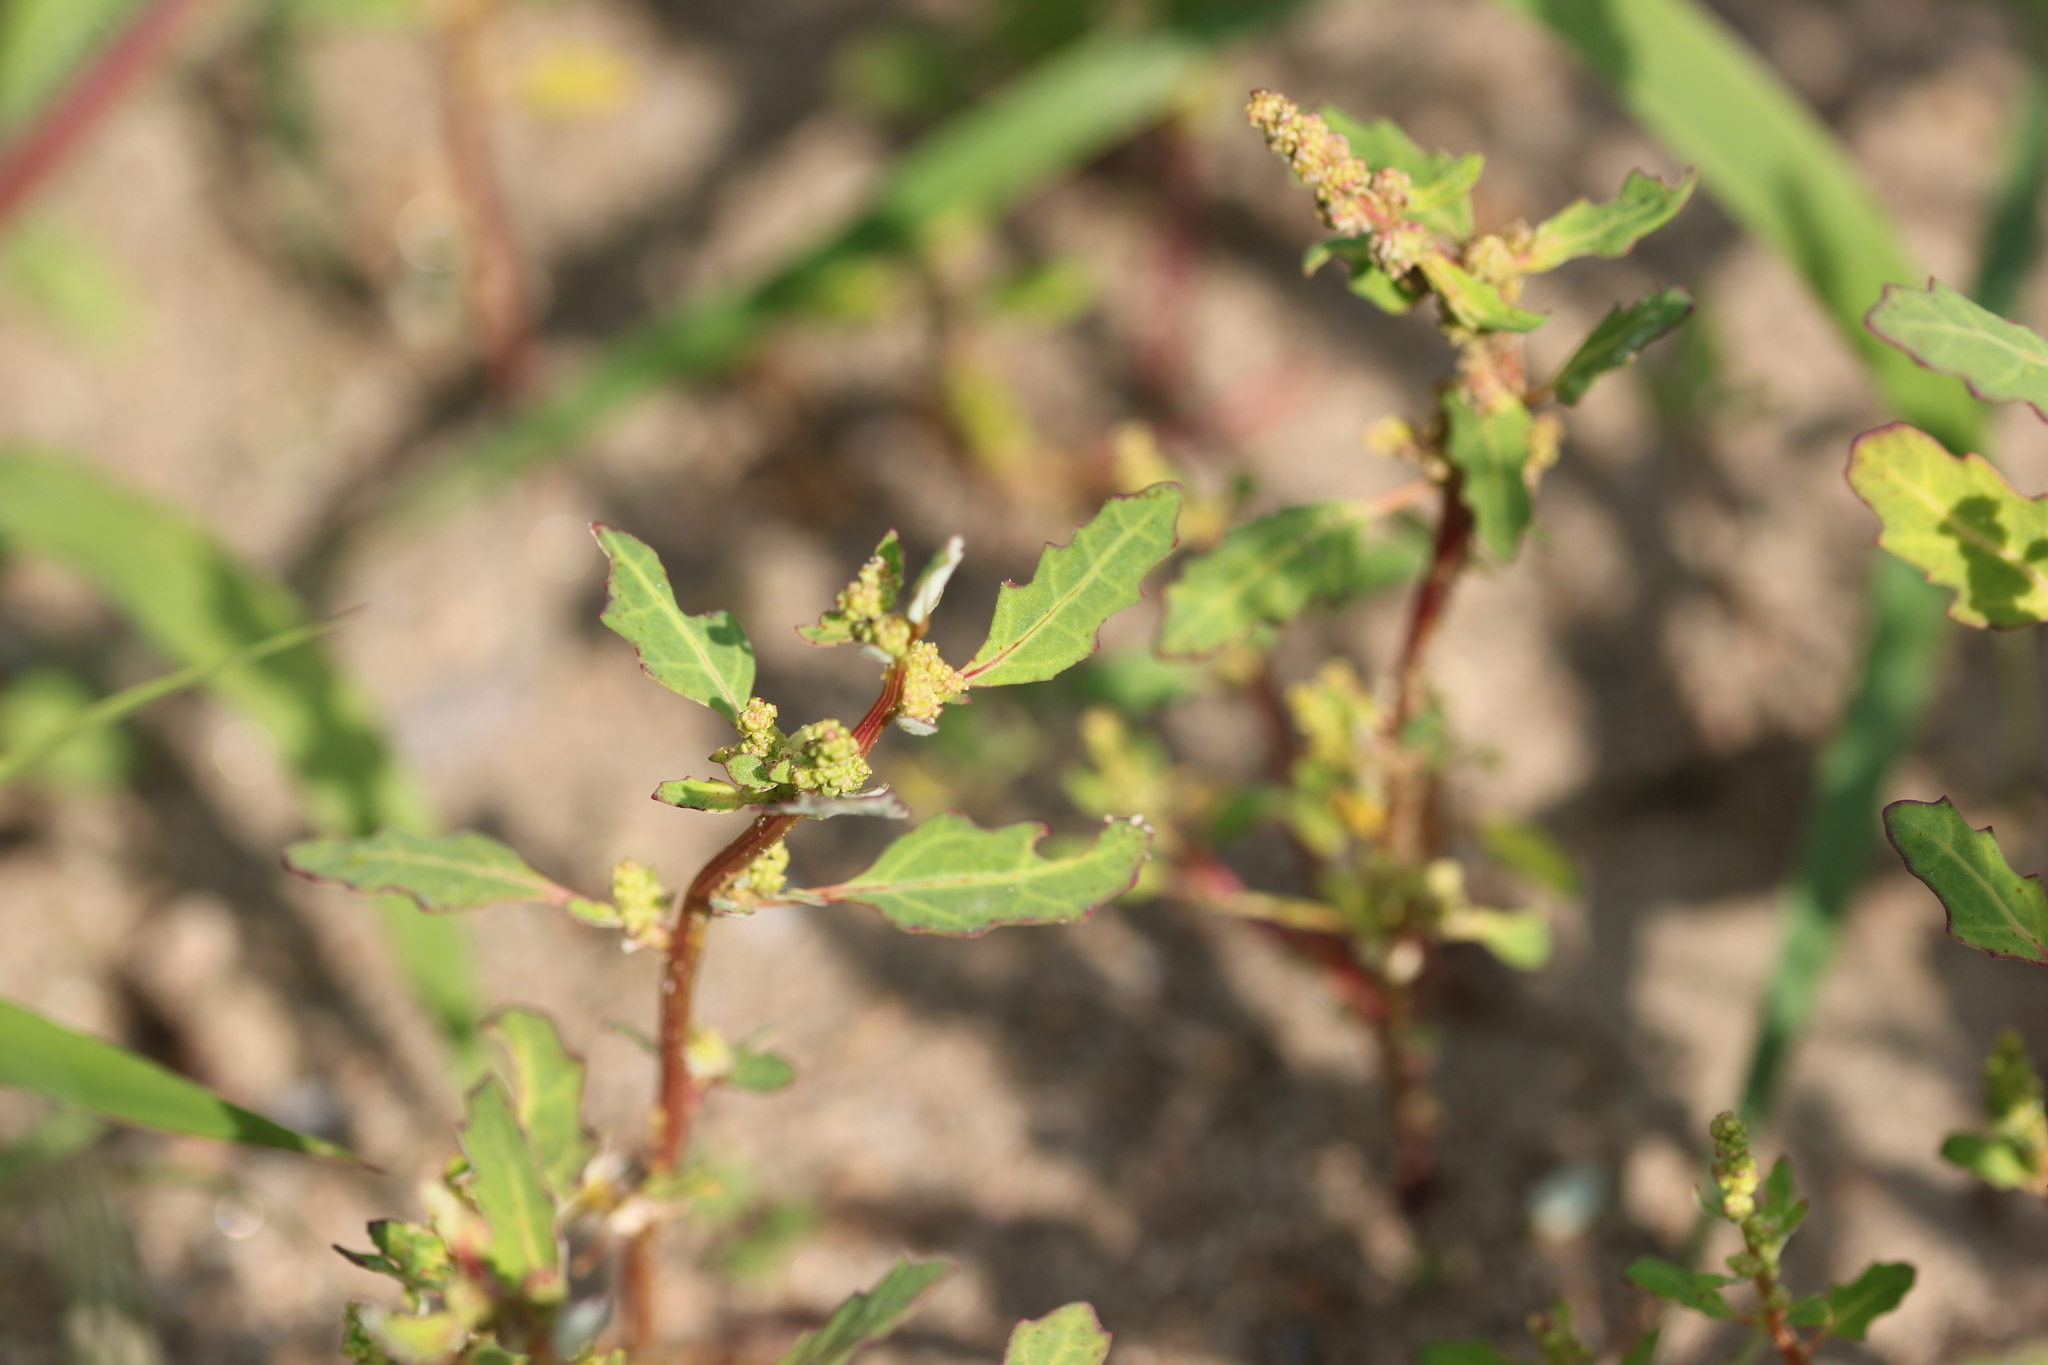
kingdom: Plantae
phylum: Tracheophyta
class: Magnoliopsida
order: Caryophyllales
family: Amaranthaceae
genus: Oxybasis
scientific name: Oxybasis glauca
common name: Glaucous goosefoot
